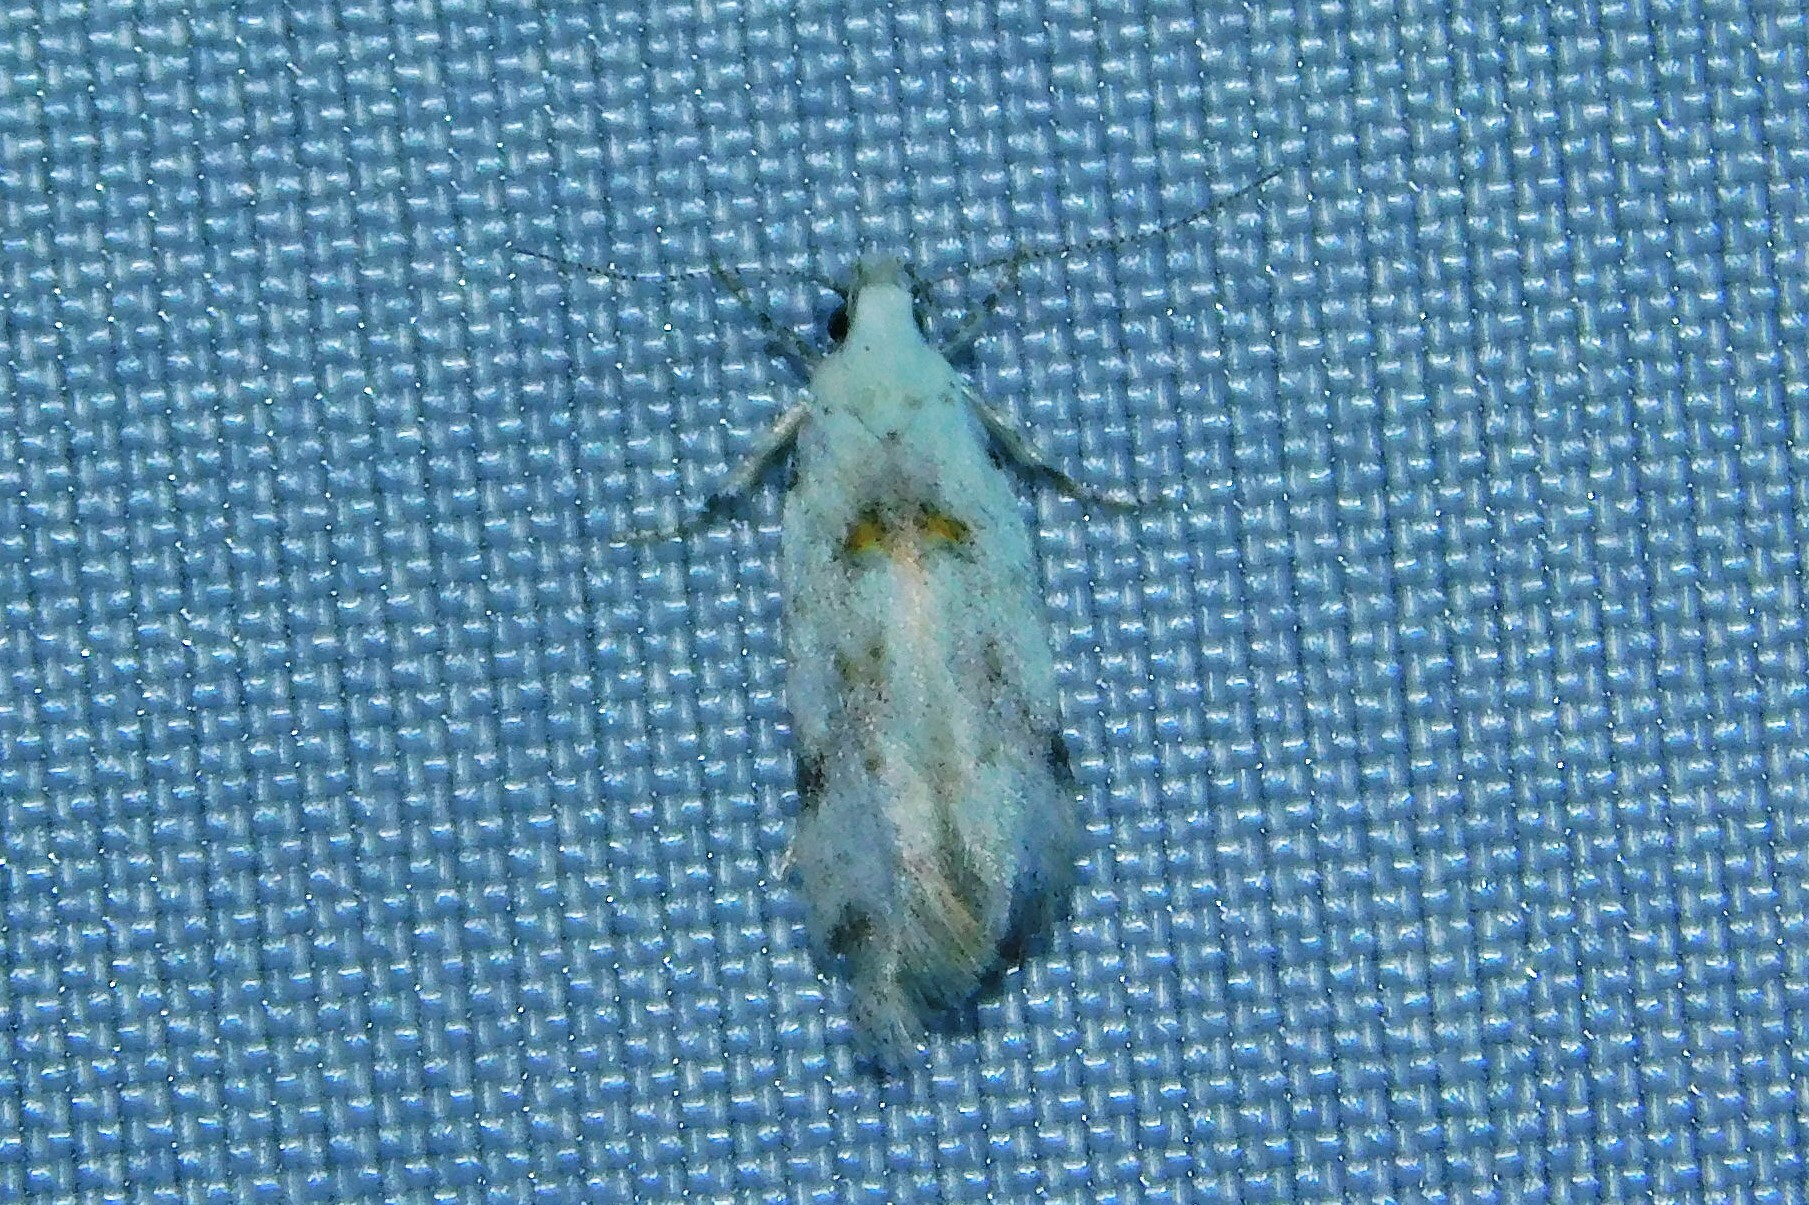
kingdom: Animalia
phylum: Arthropoda
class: Insecta
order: Lepidoptera
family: Gelechiidae
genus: Carpatolechia
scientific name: Carpatolechia alburnella
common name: Suffused groundling
